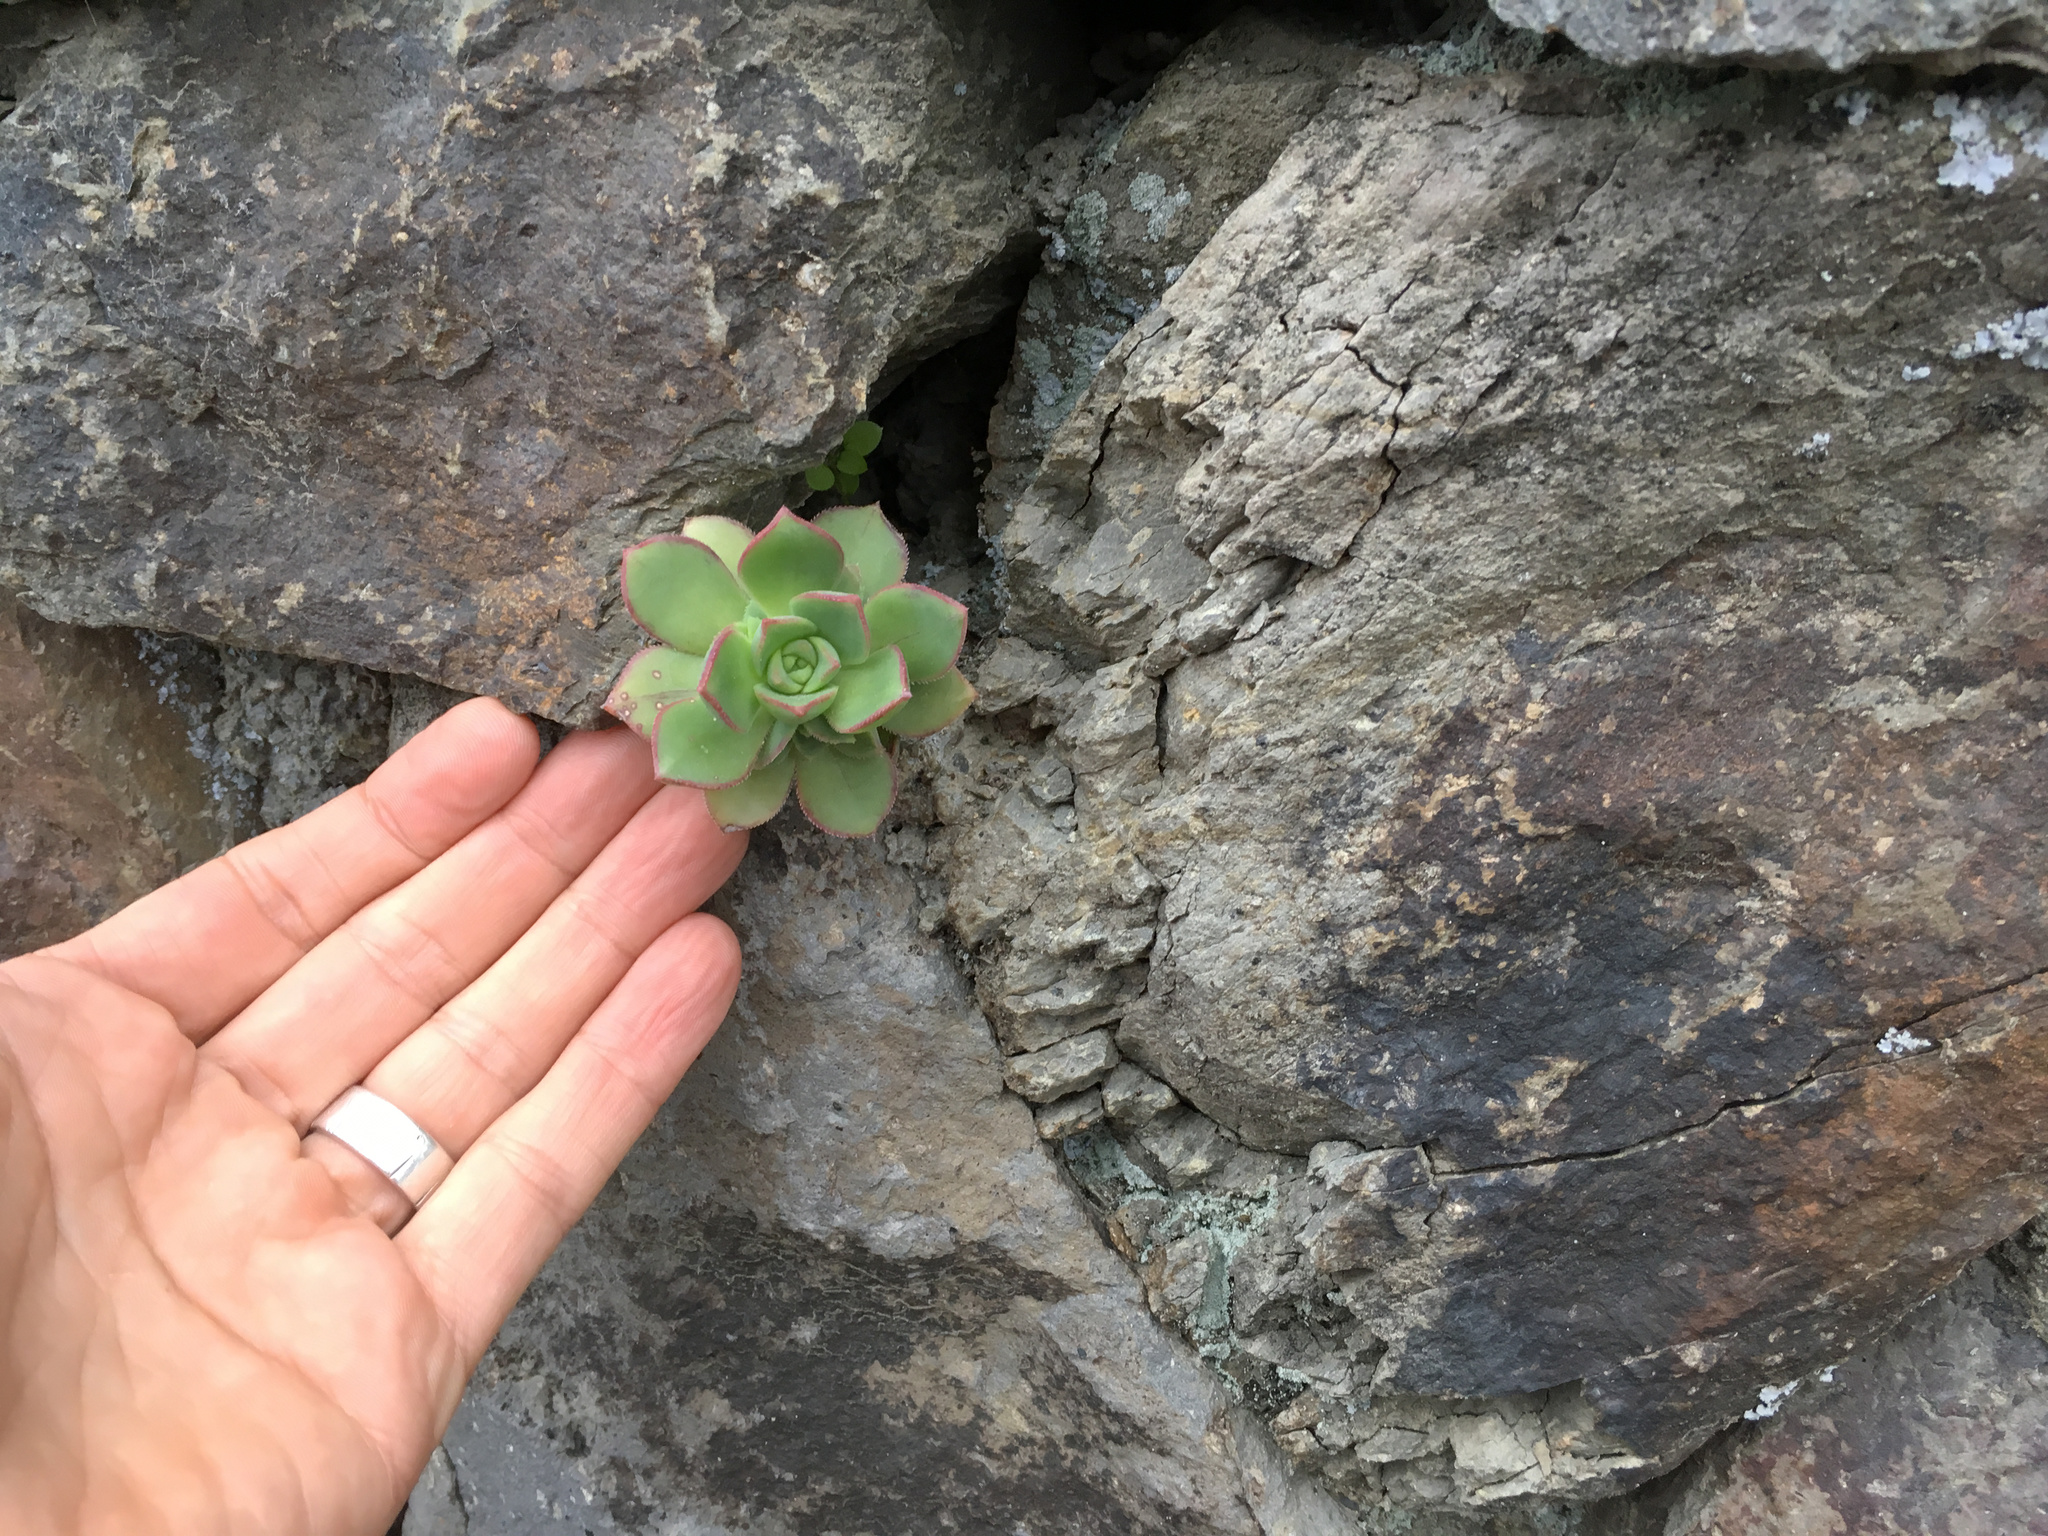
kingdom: Plantae
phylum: Tracheophyta
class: Magnoliopsida
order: Saxifragales
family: Crassulaceae
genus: Aeonium
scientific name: Aeonium haworthii
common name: Haworth's aeonium
